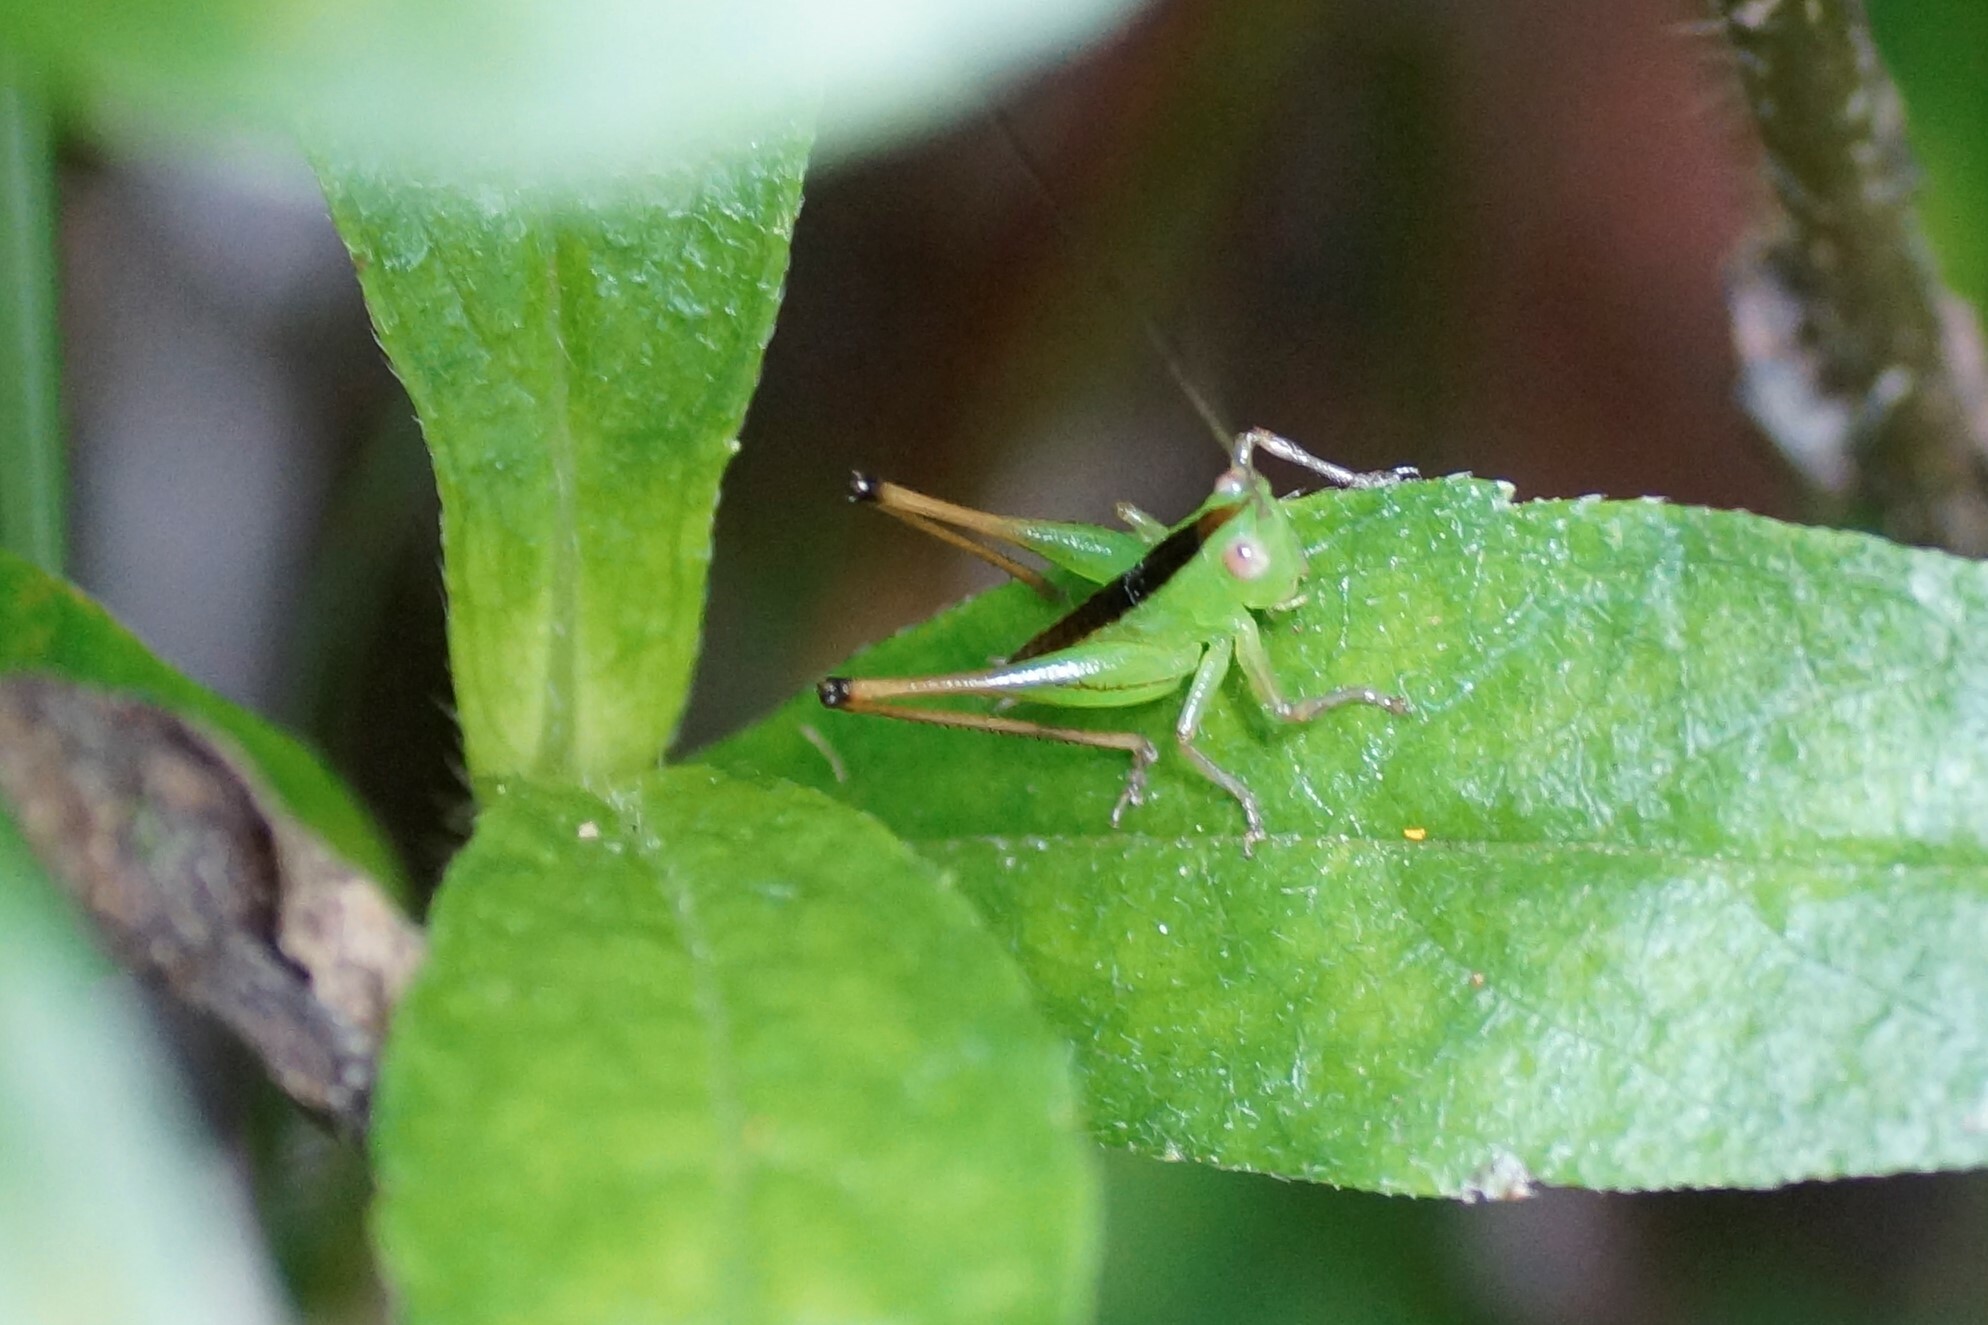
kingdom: Animalia
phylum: Arthropoda
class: Insecta
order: Orthoptera
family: Tettigoniidae
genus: Conocephalus
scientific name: Conocephalus semivittatus
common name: Blackish meadow katydid
